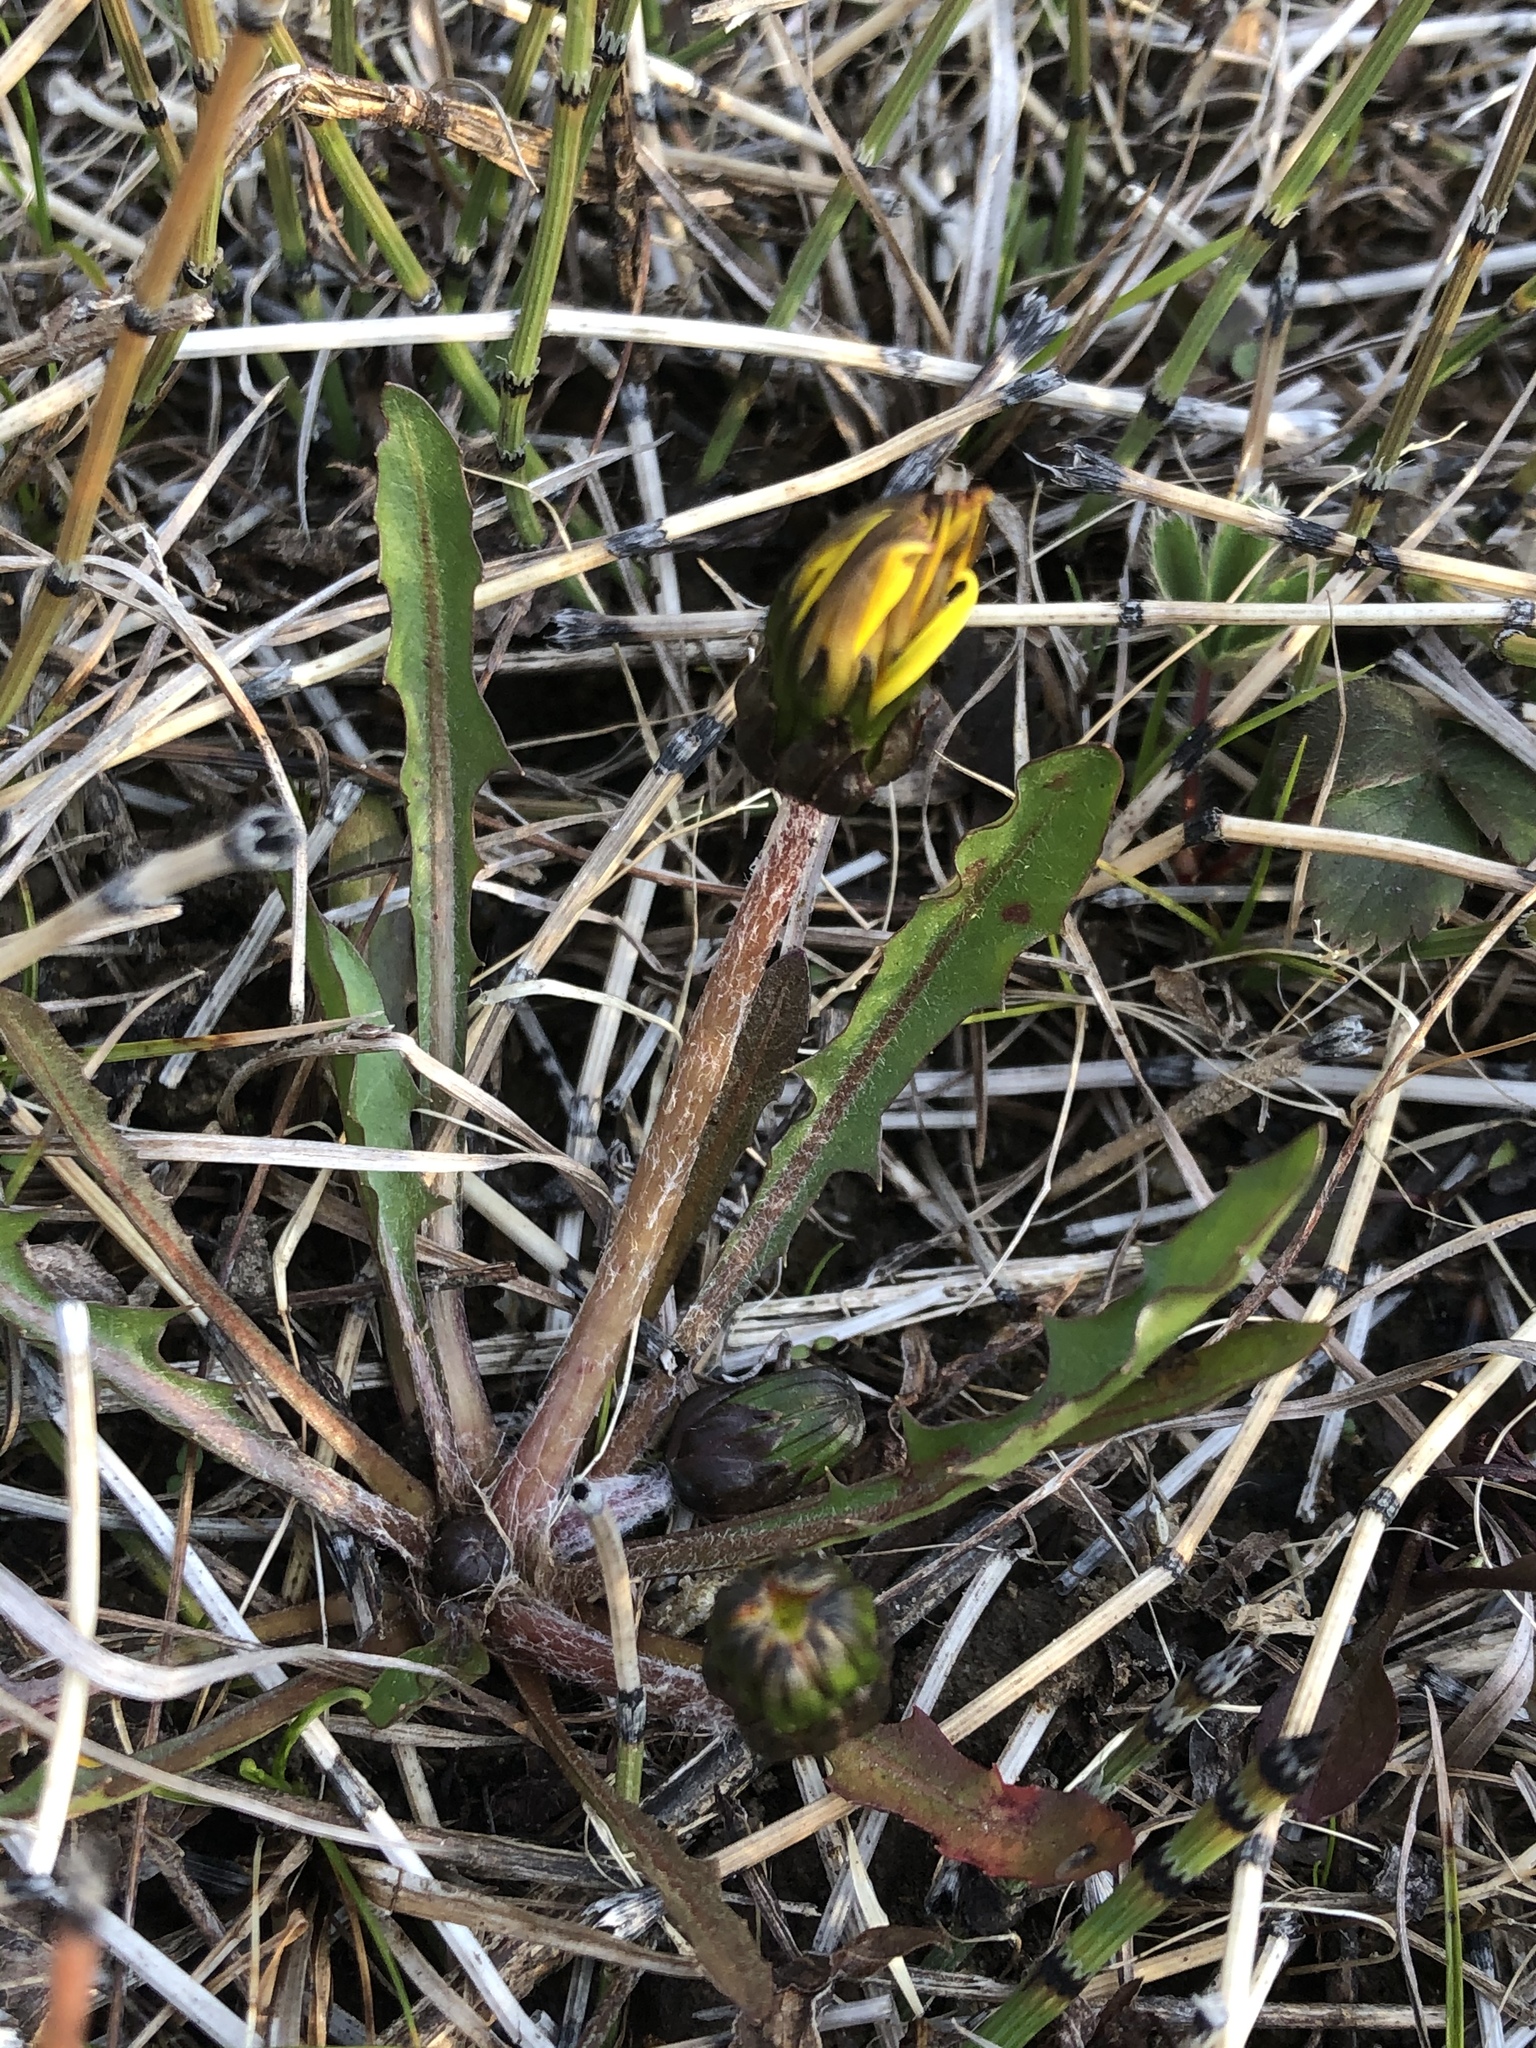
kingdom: Plantae
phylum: Tracheophyta
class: Magnoliopsida
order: Asterales
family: Asteraceae
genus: Taraxacum
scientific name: Taraxacum palustre
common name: Marsh dandelion
